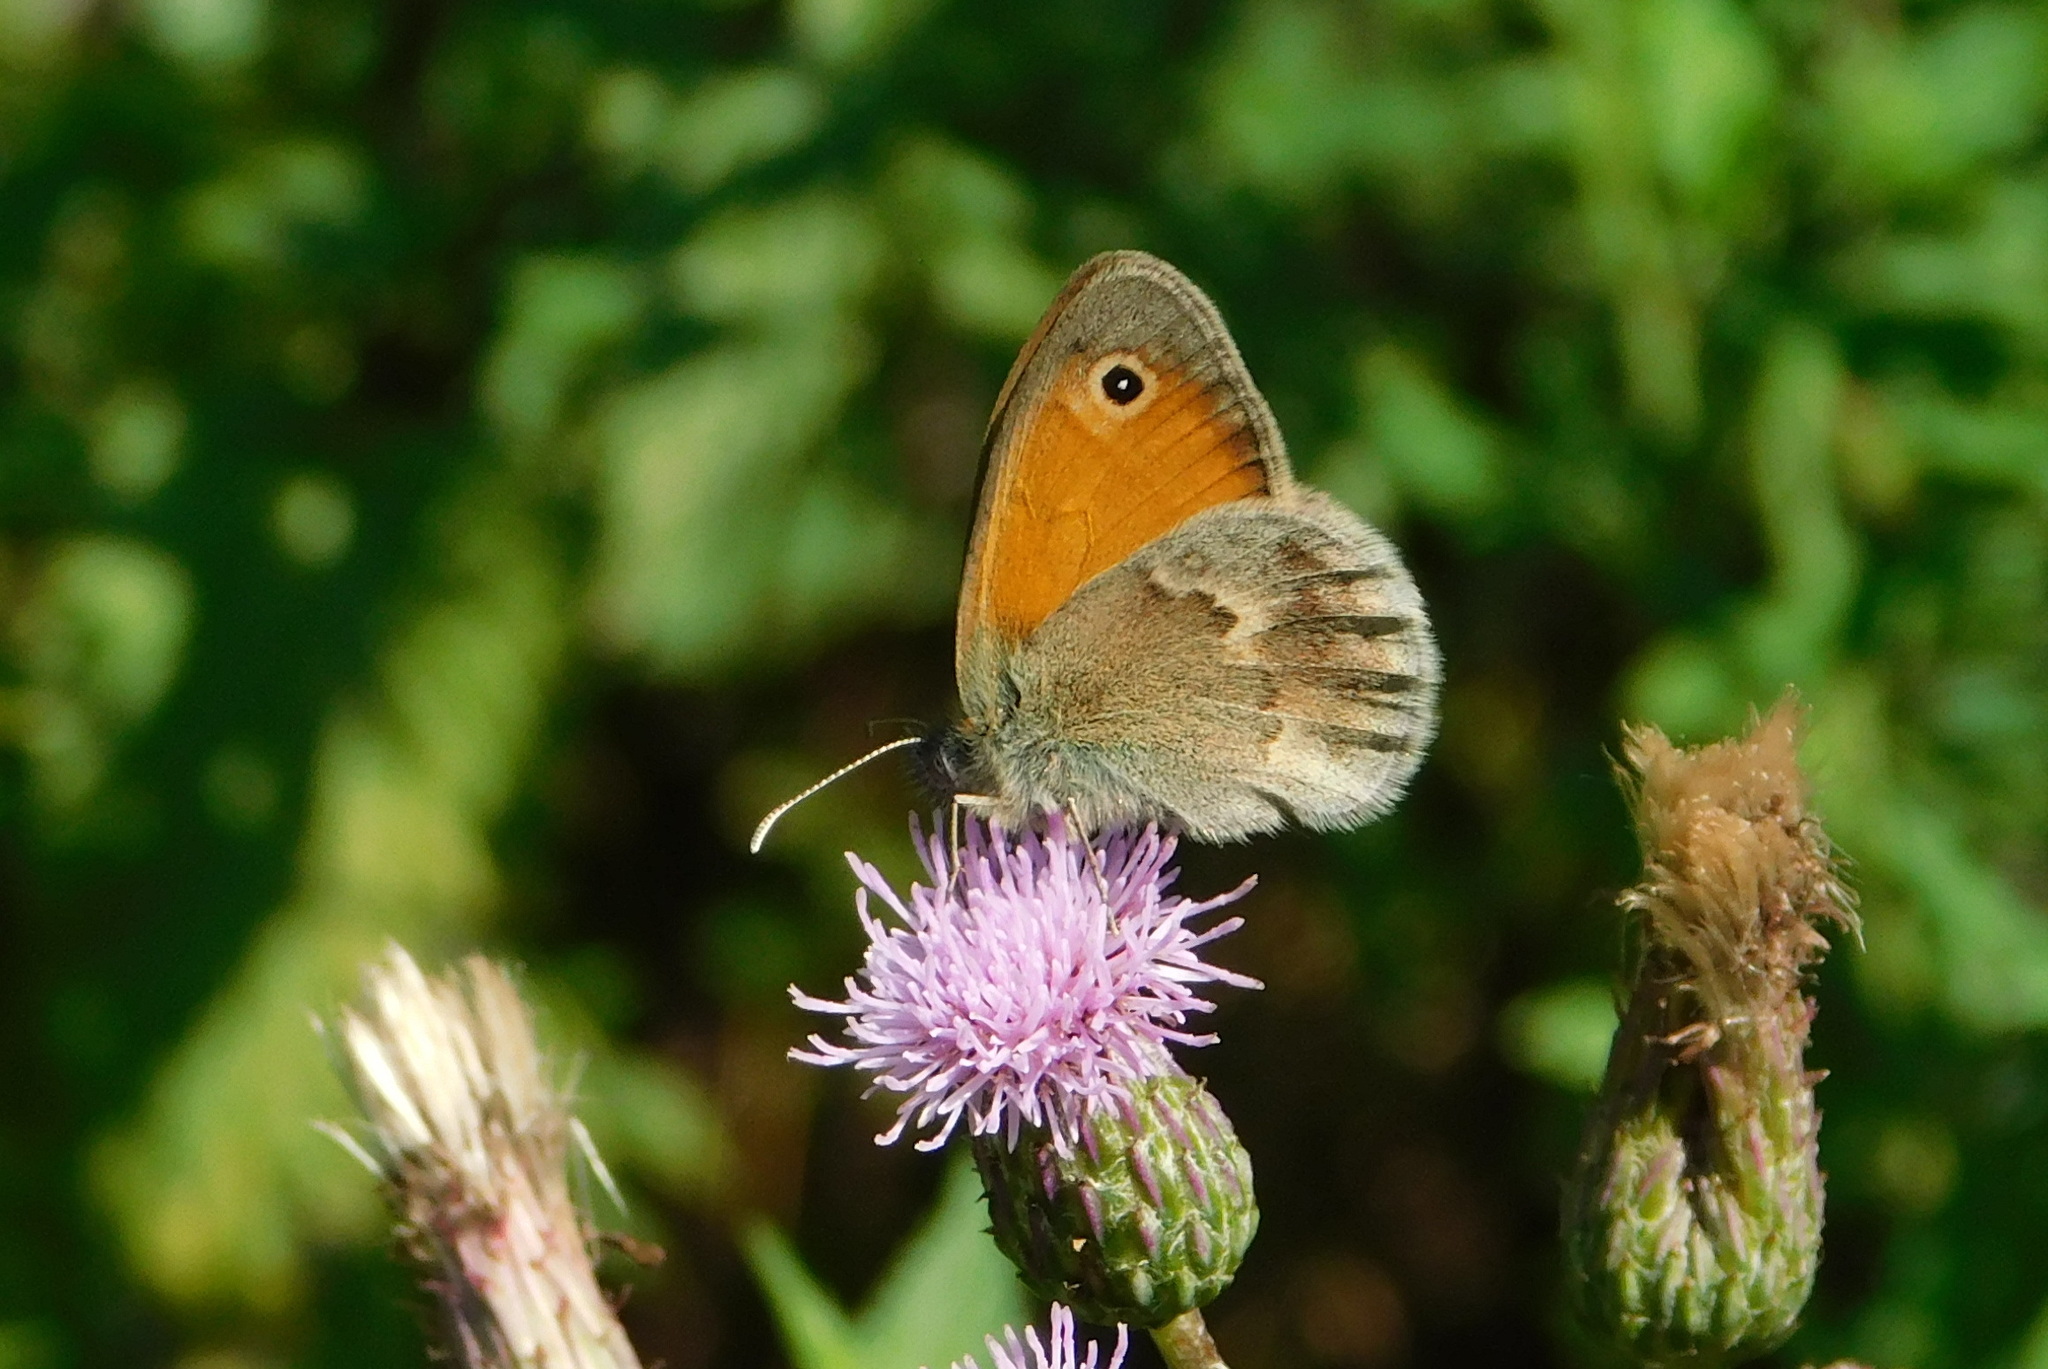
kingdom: Animalia
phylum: Arthropoda
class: Insecta
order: Lepidoptera
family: Nymphalidae
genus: Coenonympha
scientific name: Coenonympha pamphilus
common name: Small heath
